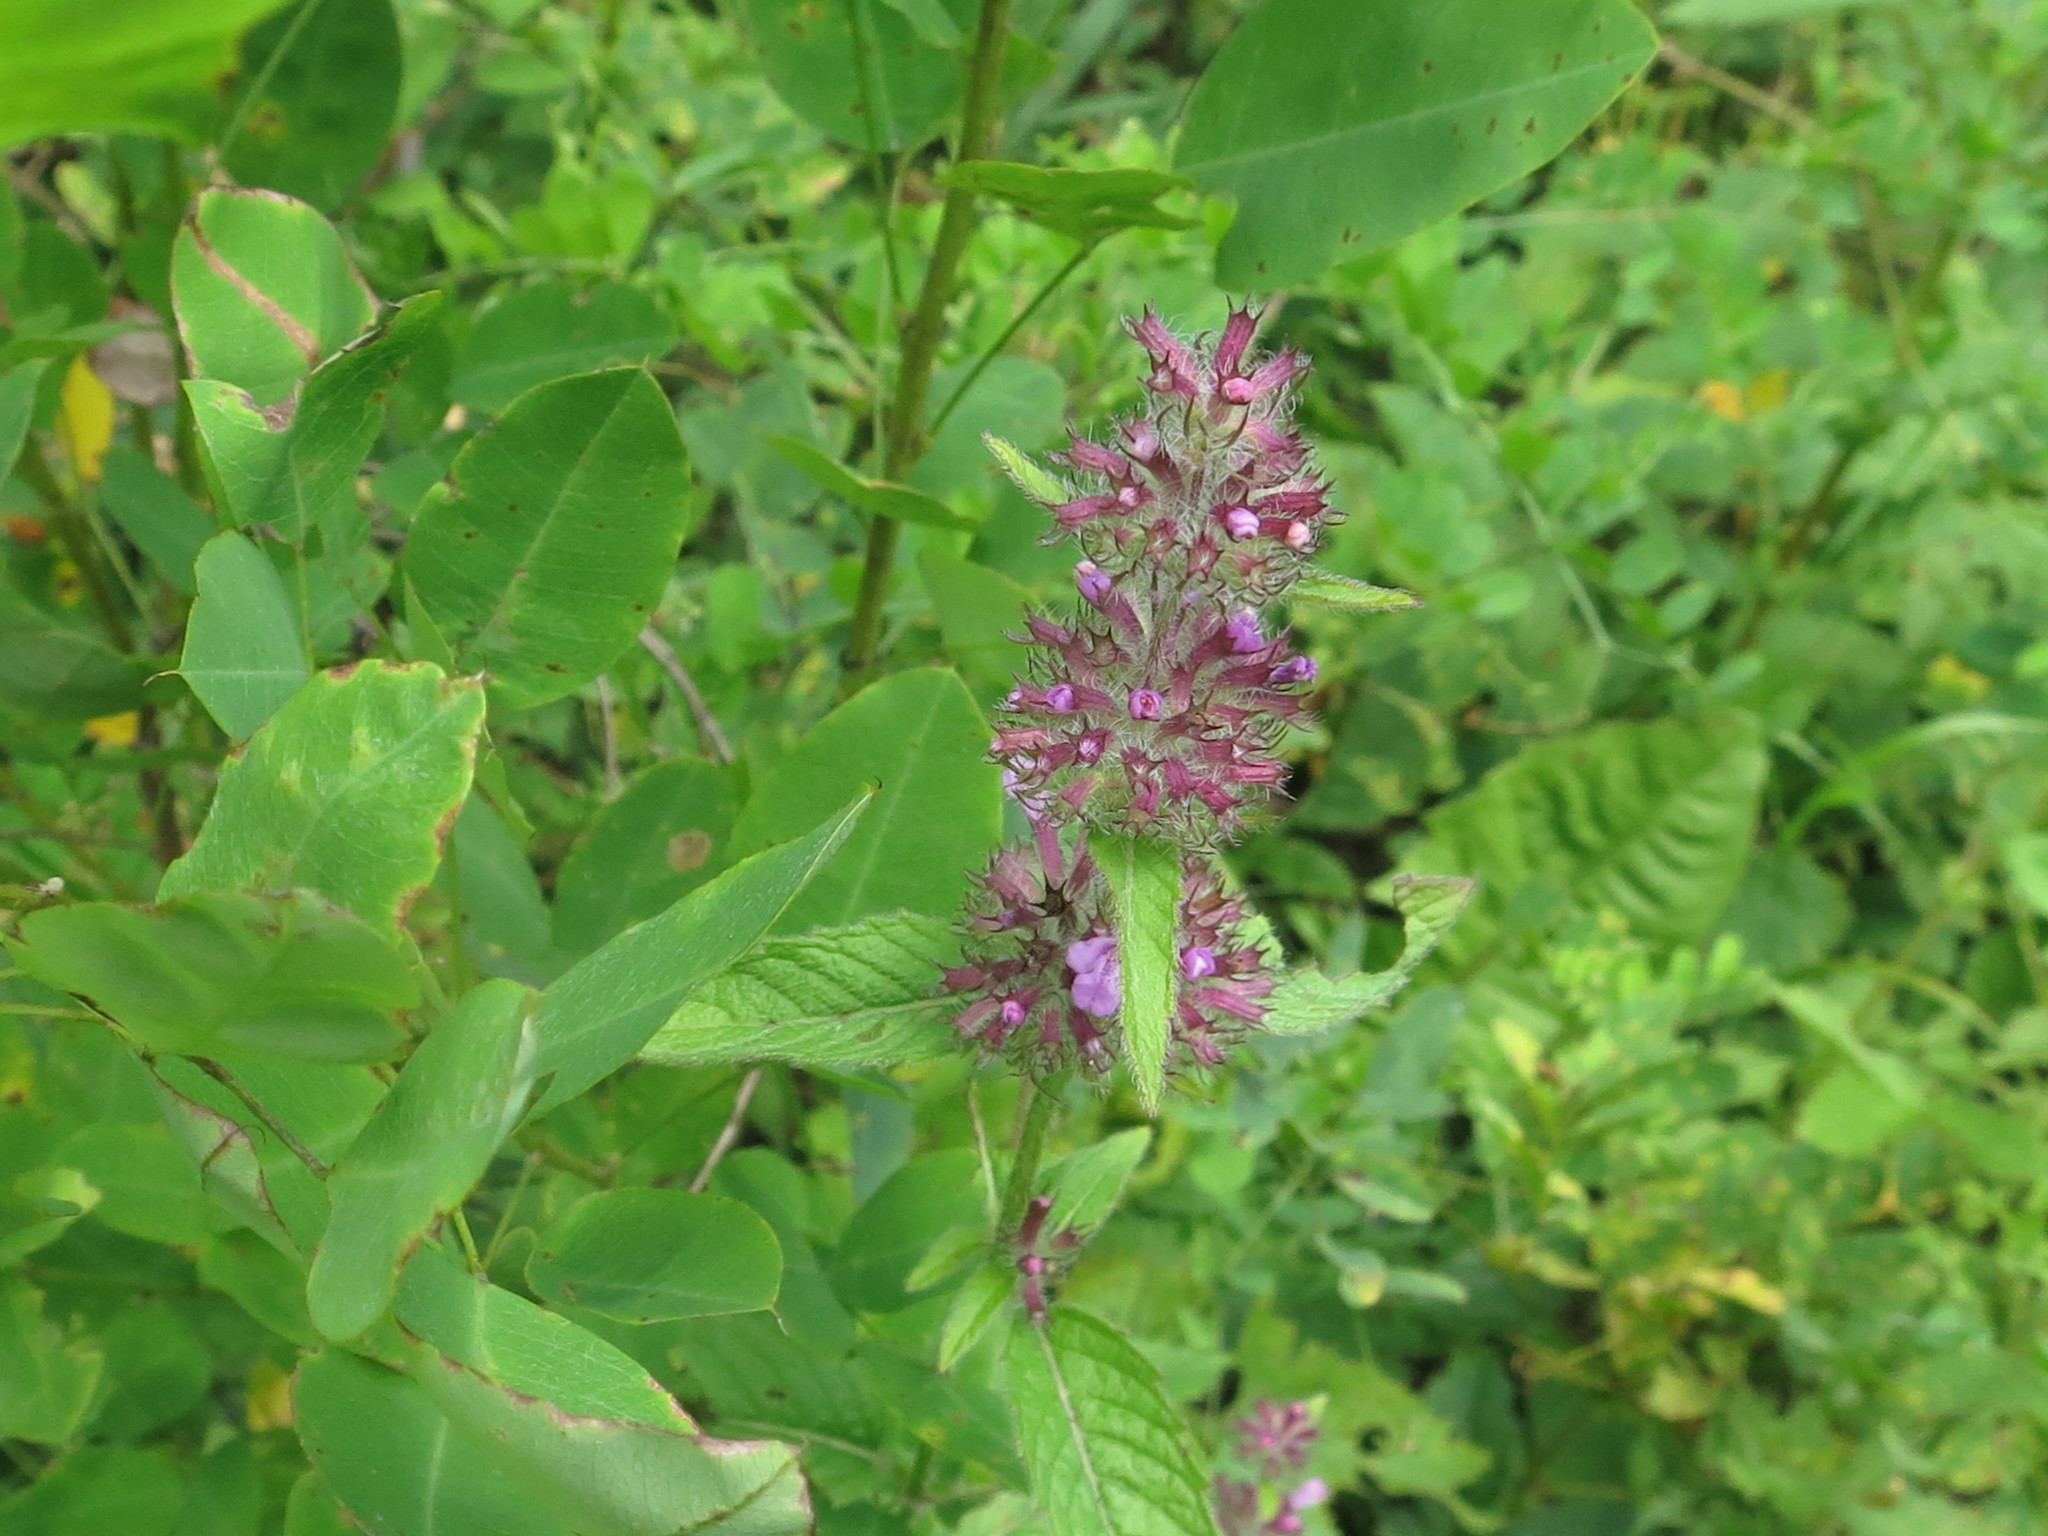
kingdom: Plantae
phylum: Tracheophyta
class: Magnoliopsida
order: Lamiales
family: Lamiaceae
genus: Clinopodium
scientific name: Clinopodium chinense
